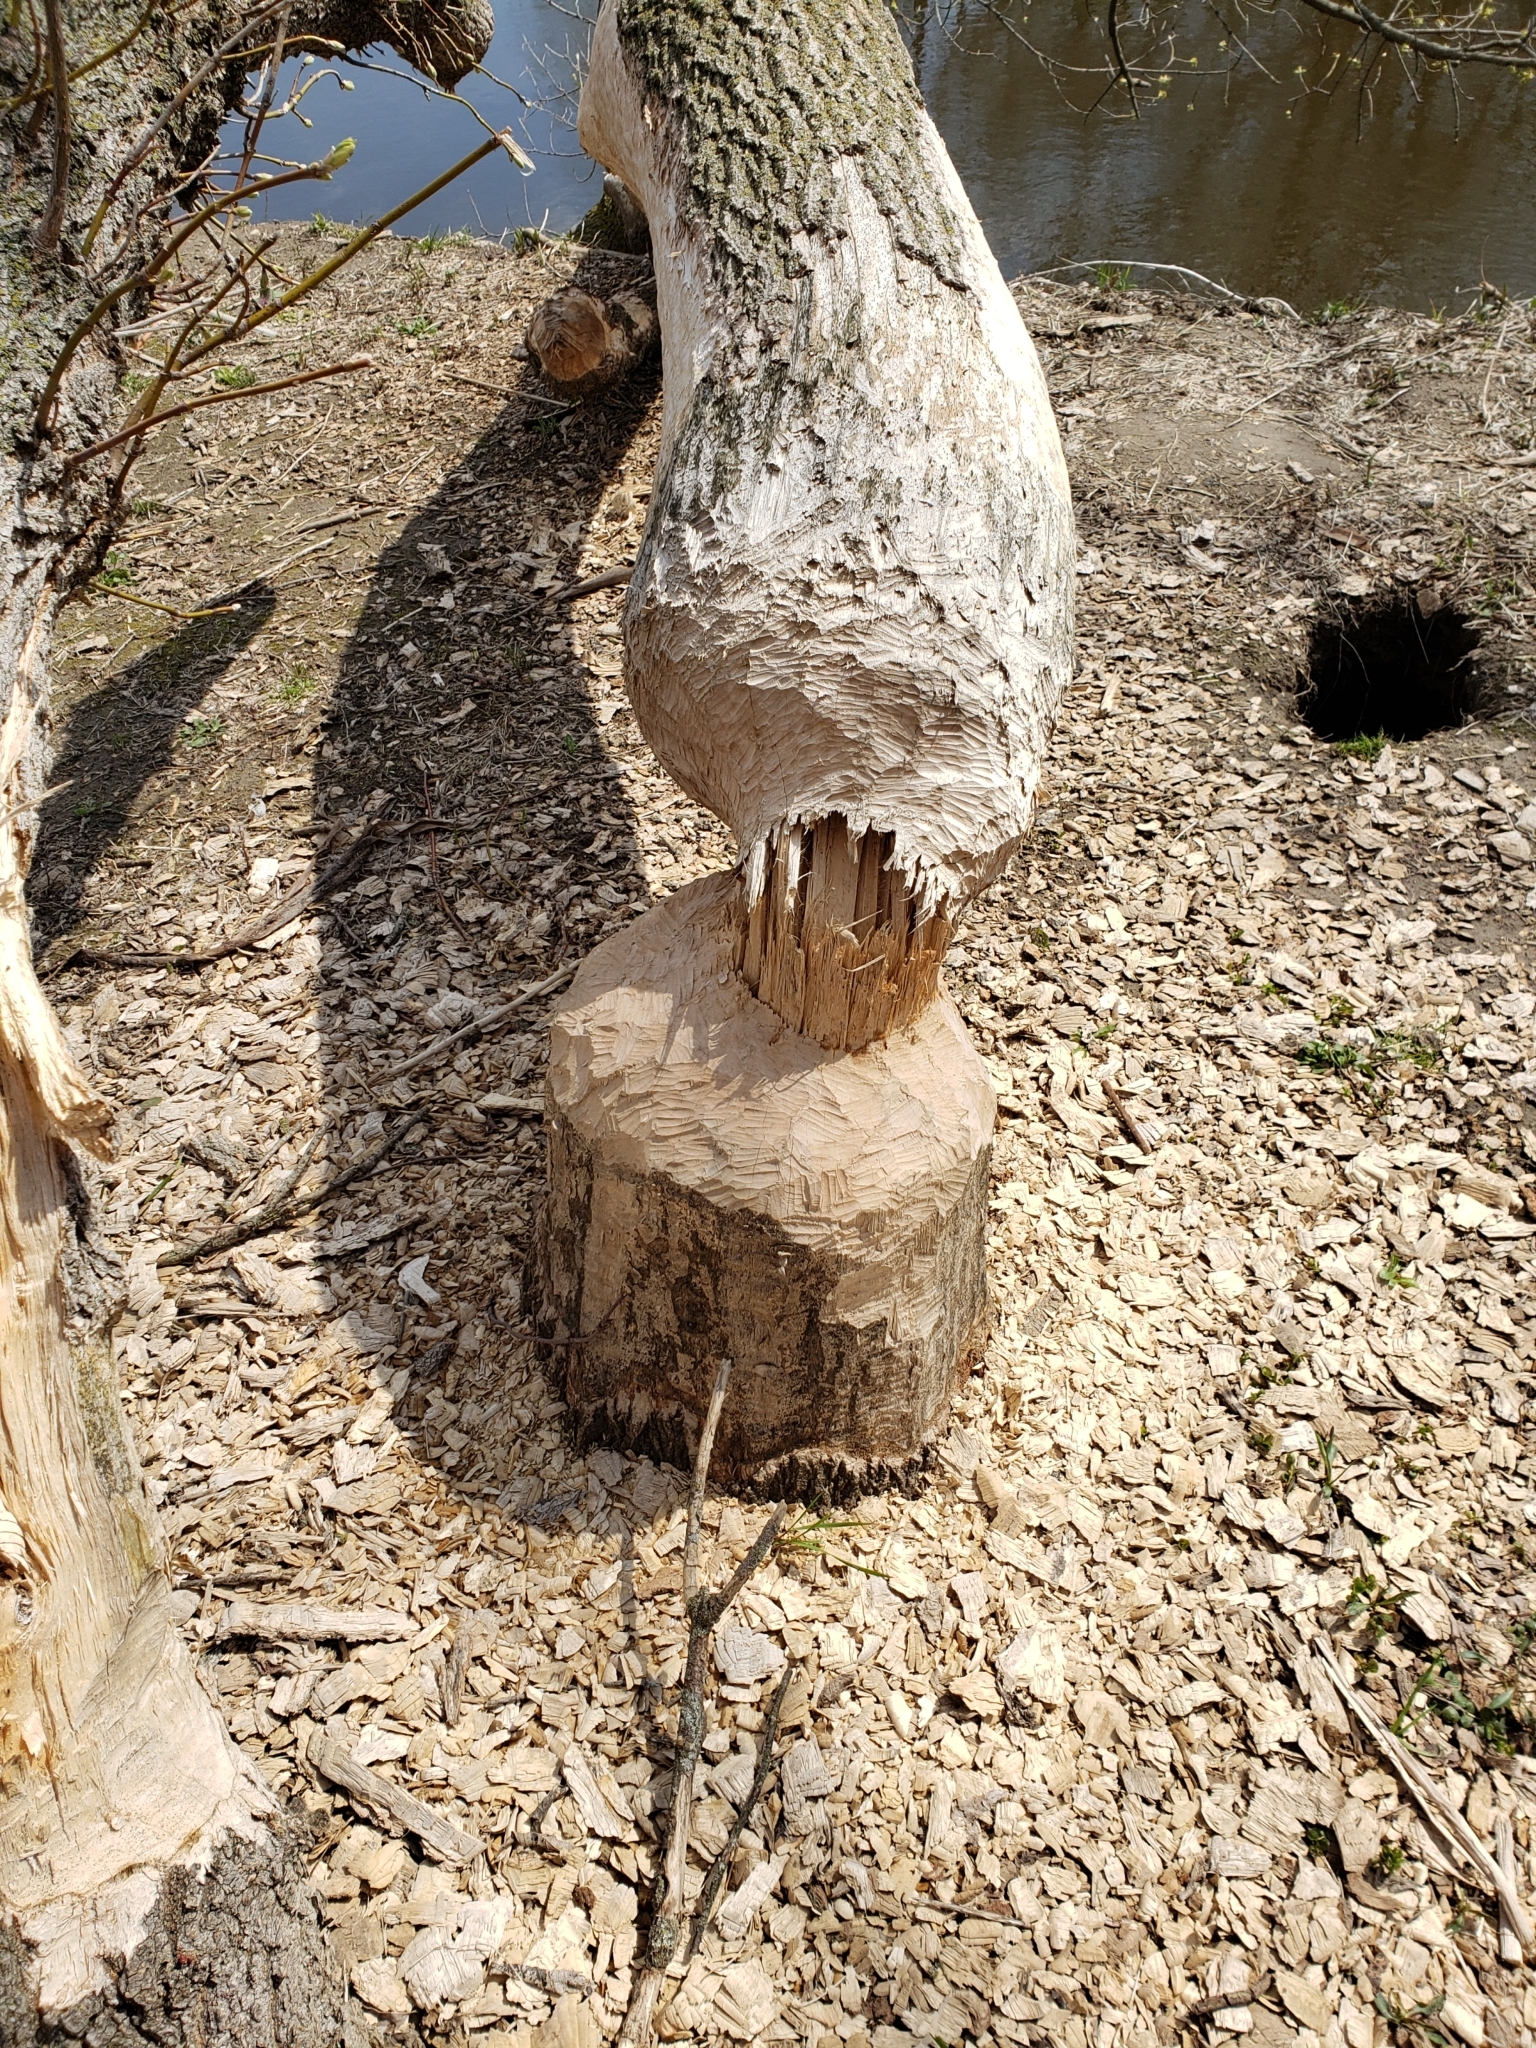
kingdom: Animalia
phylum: Chordata
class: Mammalia
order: Rodentia
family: Castoridae
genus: Castor
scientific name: Castor canadensis
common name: American beaver
